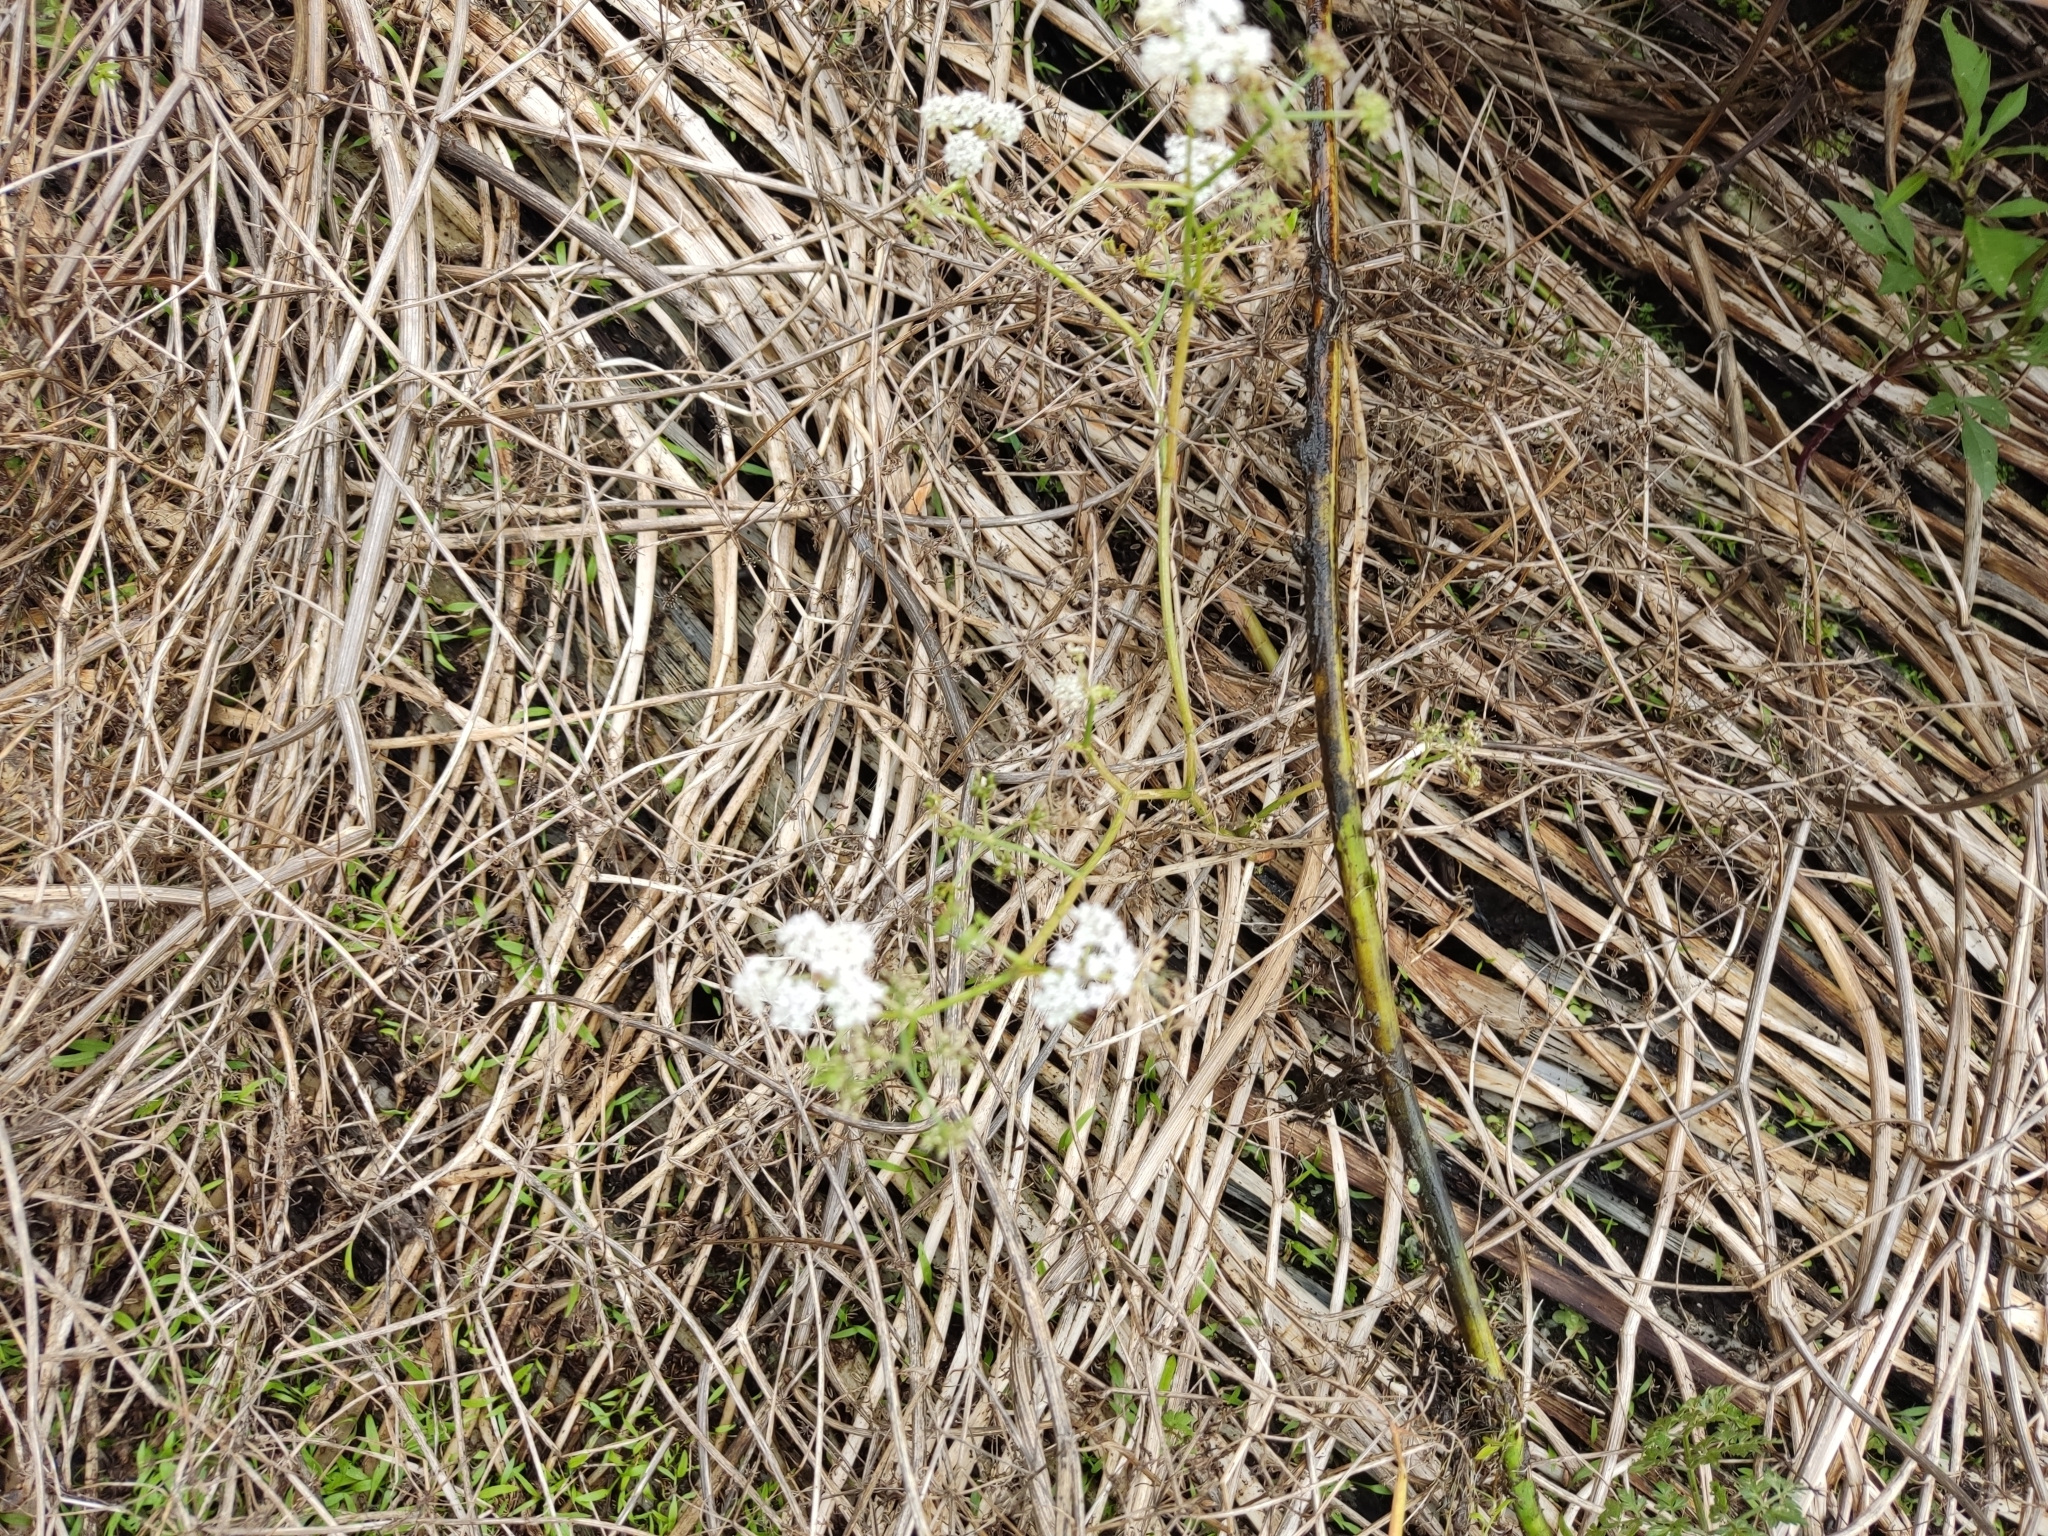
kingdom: Plantae
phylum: Tracheophyta
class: Magnoliopsida
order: Apiales
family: Apiaceae
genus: Oenanthe
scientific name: Oenanthe aquatica
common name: Fine-leaved water-dropwort
